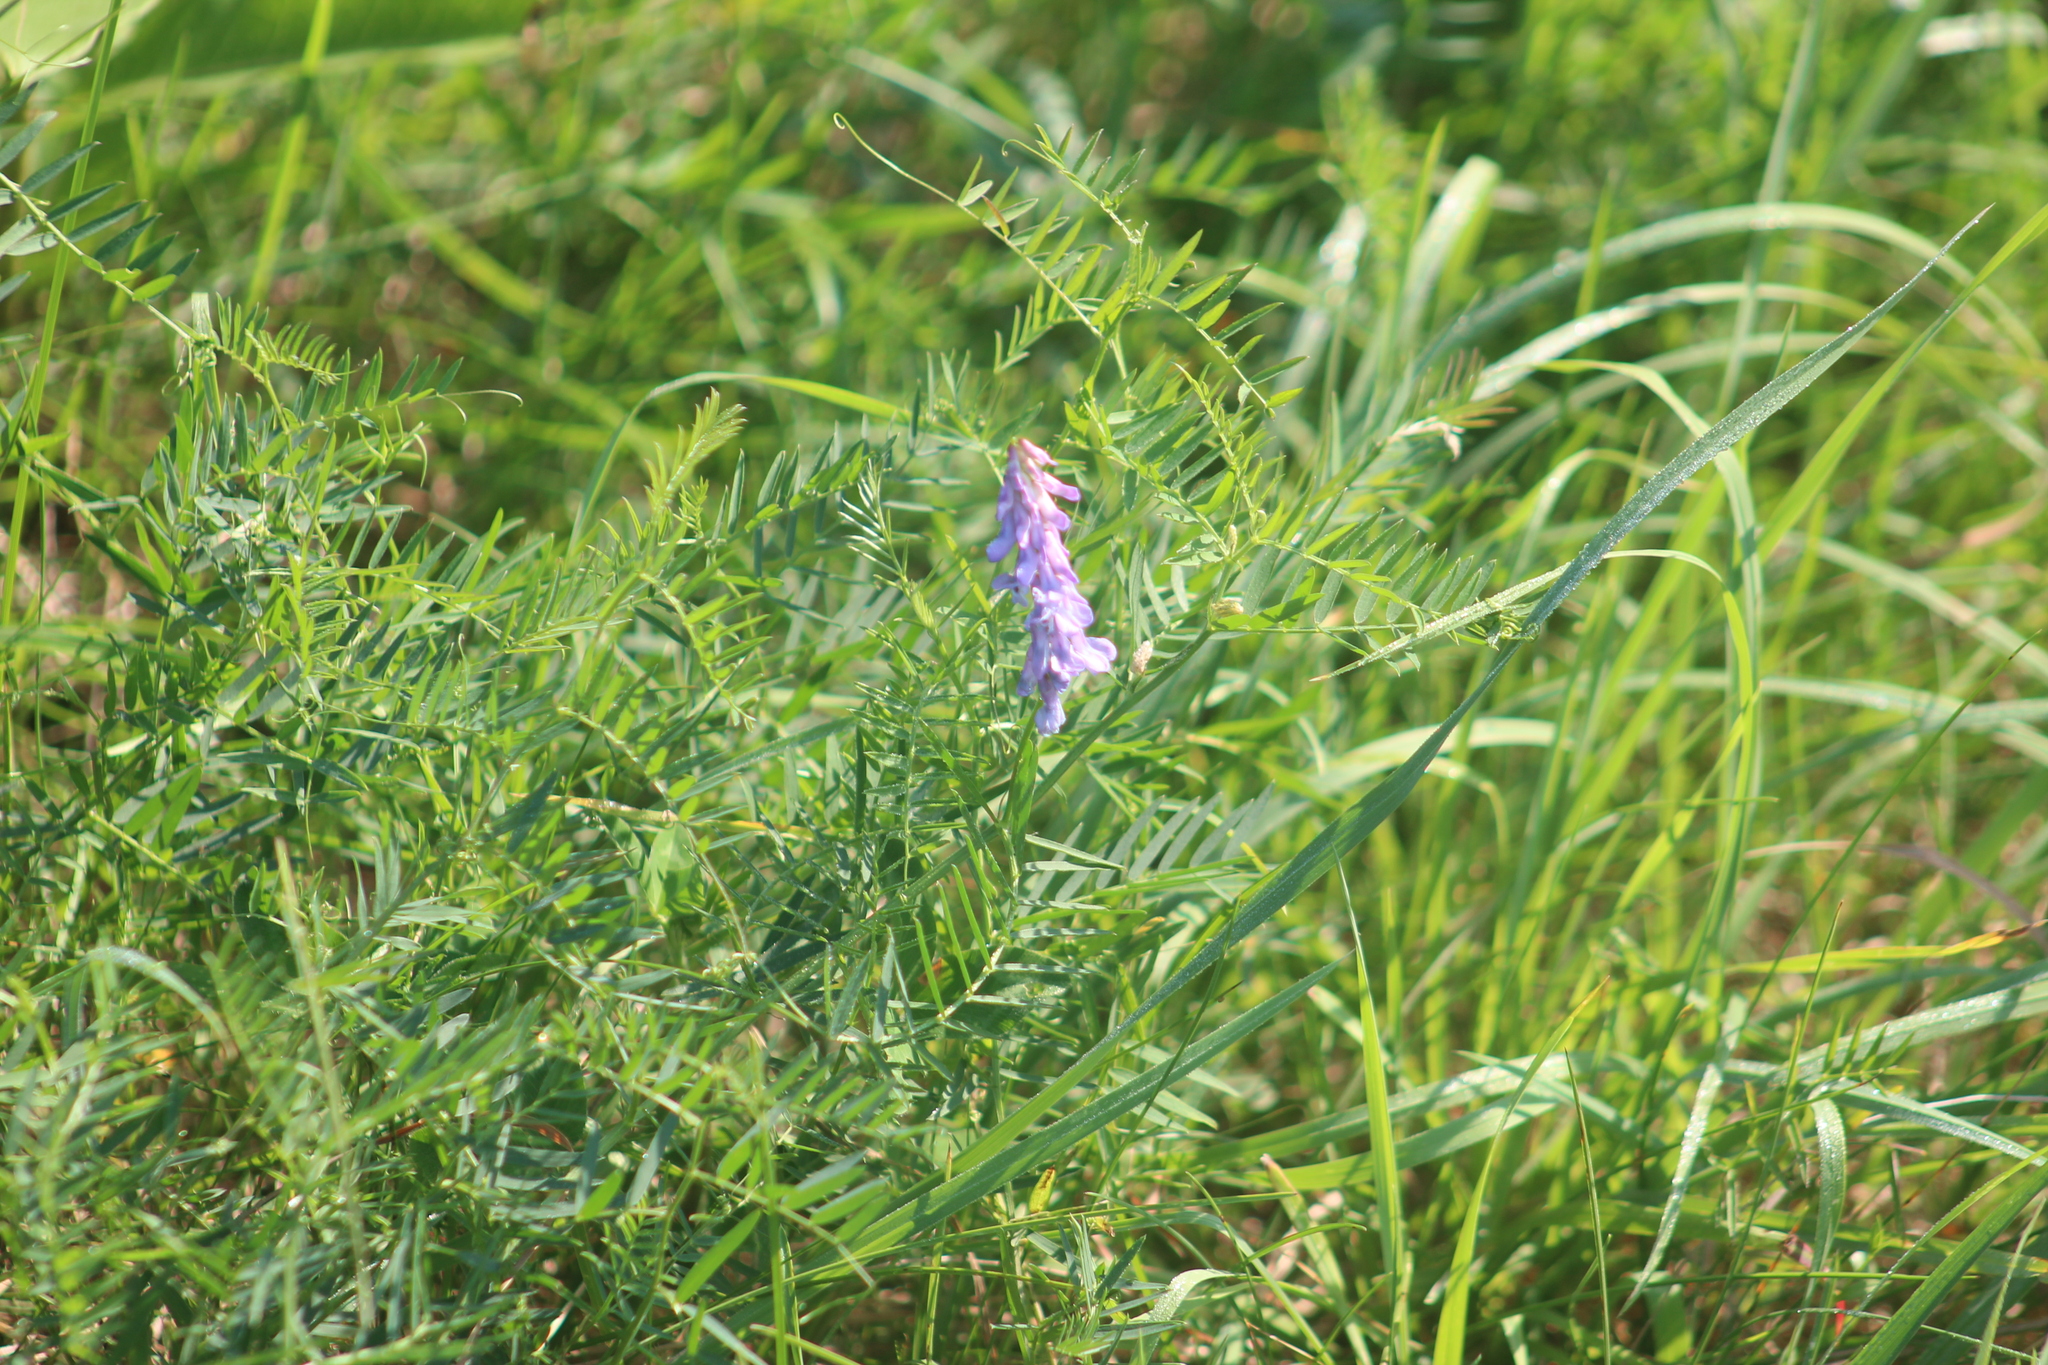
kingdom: Plantae
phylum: Tracheophyta
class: Magnoliopsida
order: Fabales
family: Fabaceae
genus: Vicia
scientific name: Vicia cracca
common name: Bird vetch
